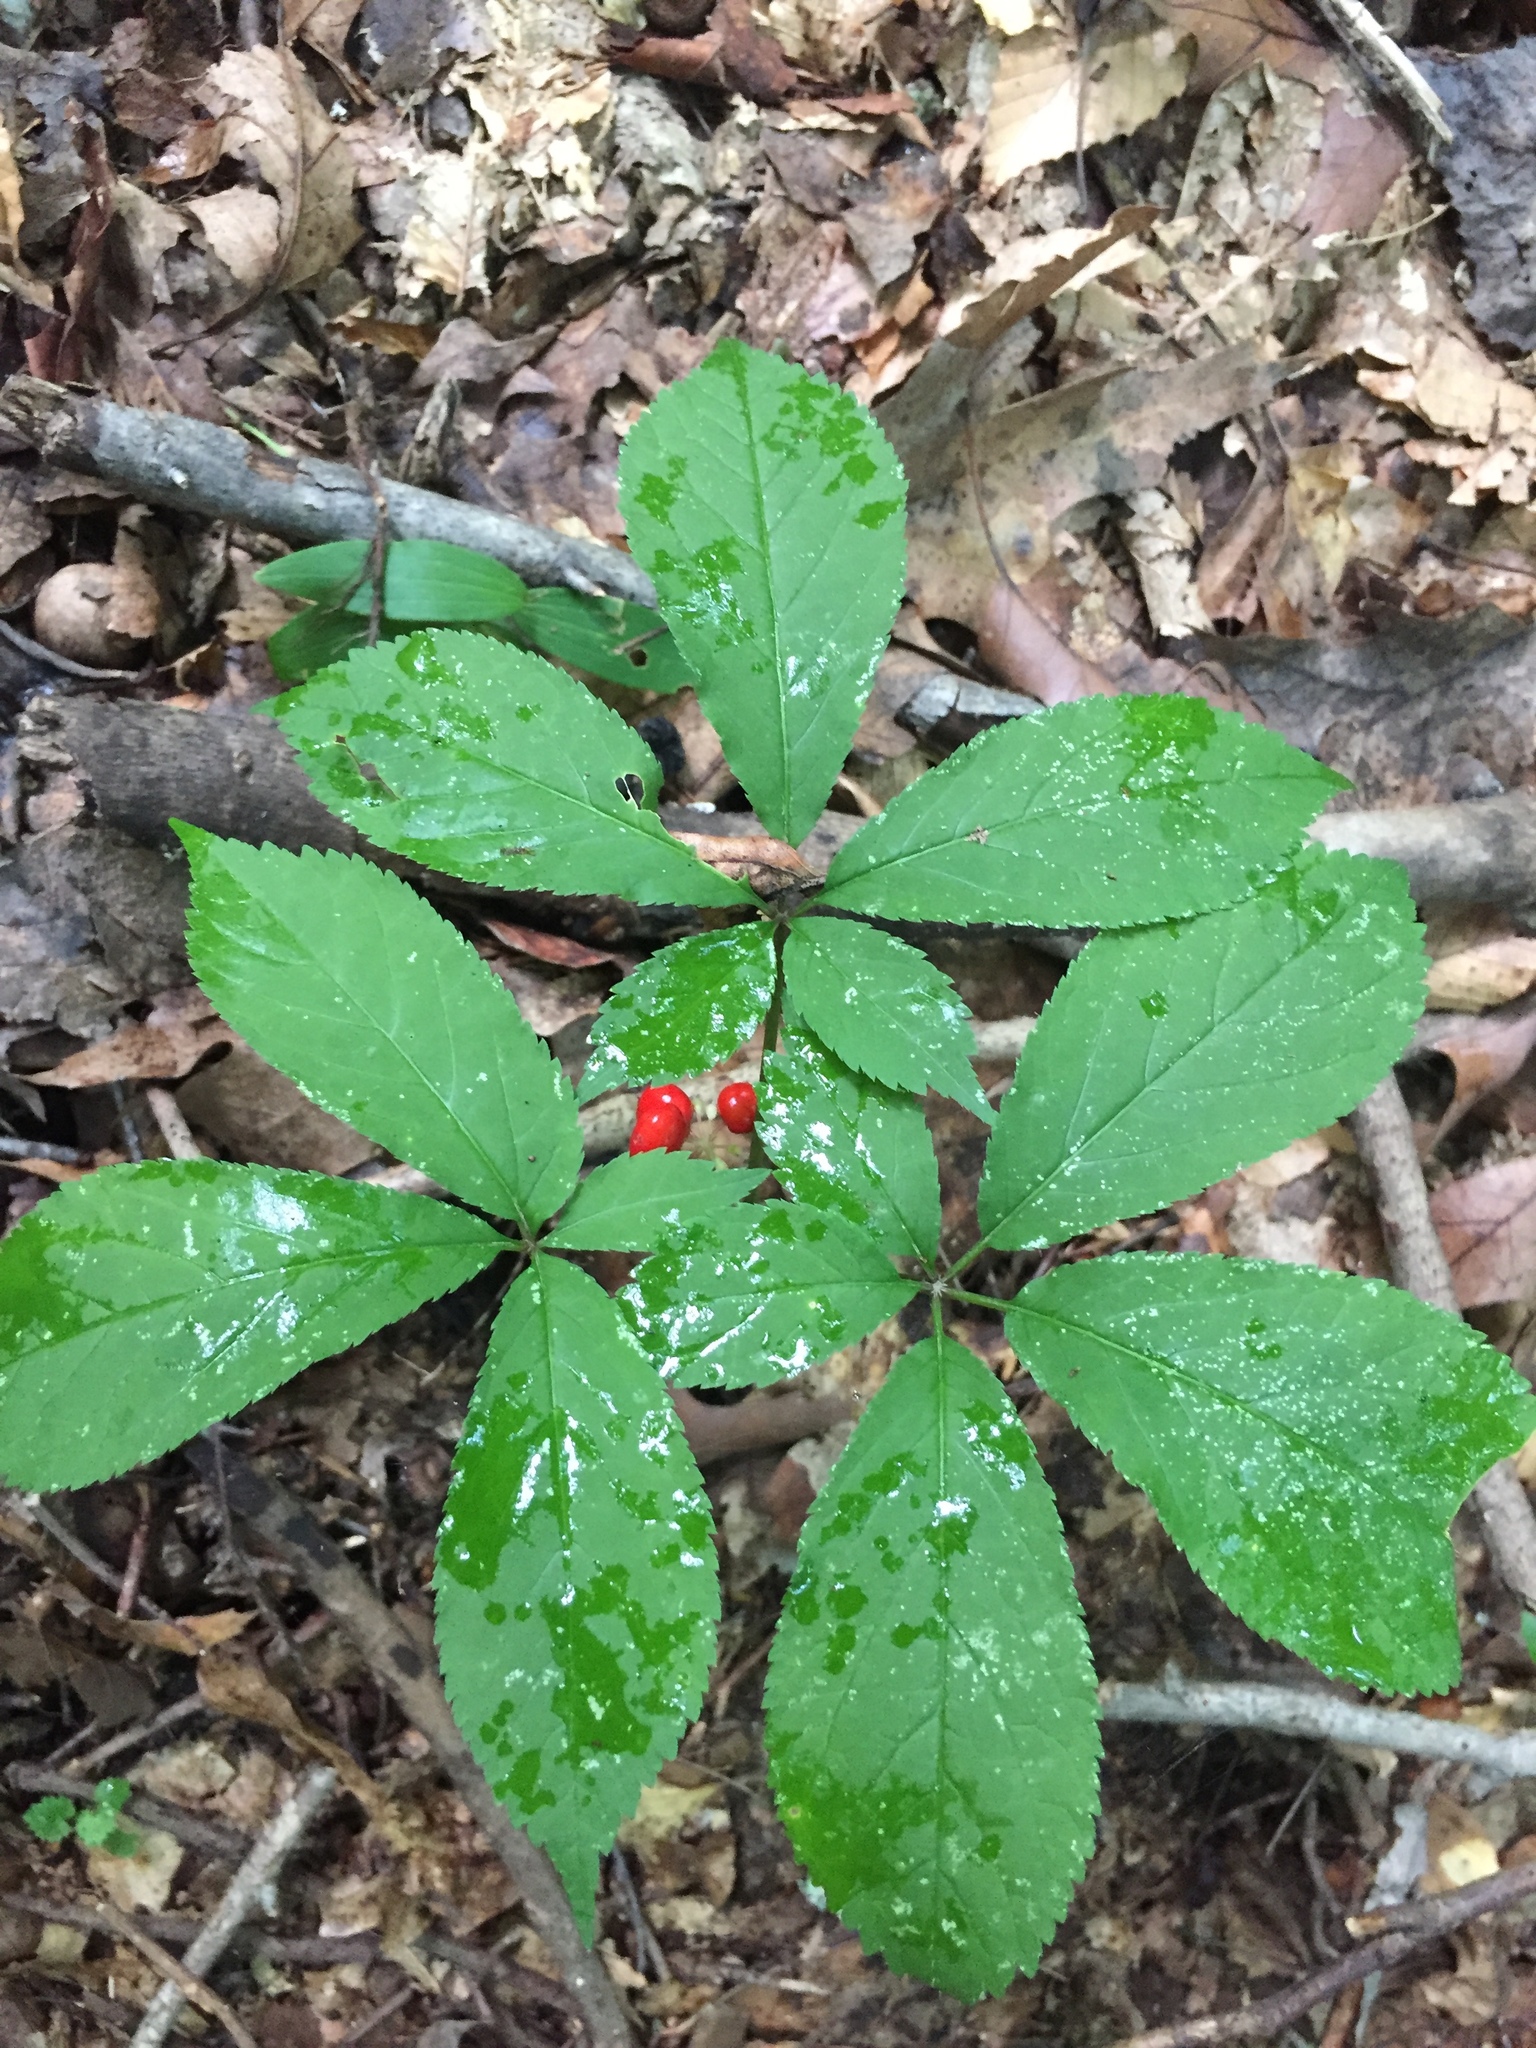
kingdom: Plantae
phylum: Tracheophyta
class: Magnoliopsida
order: Apiales
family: Araliaceae
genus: Panax
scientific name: Panax quinquefolius
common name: American ginseng
